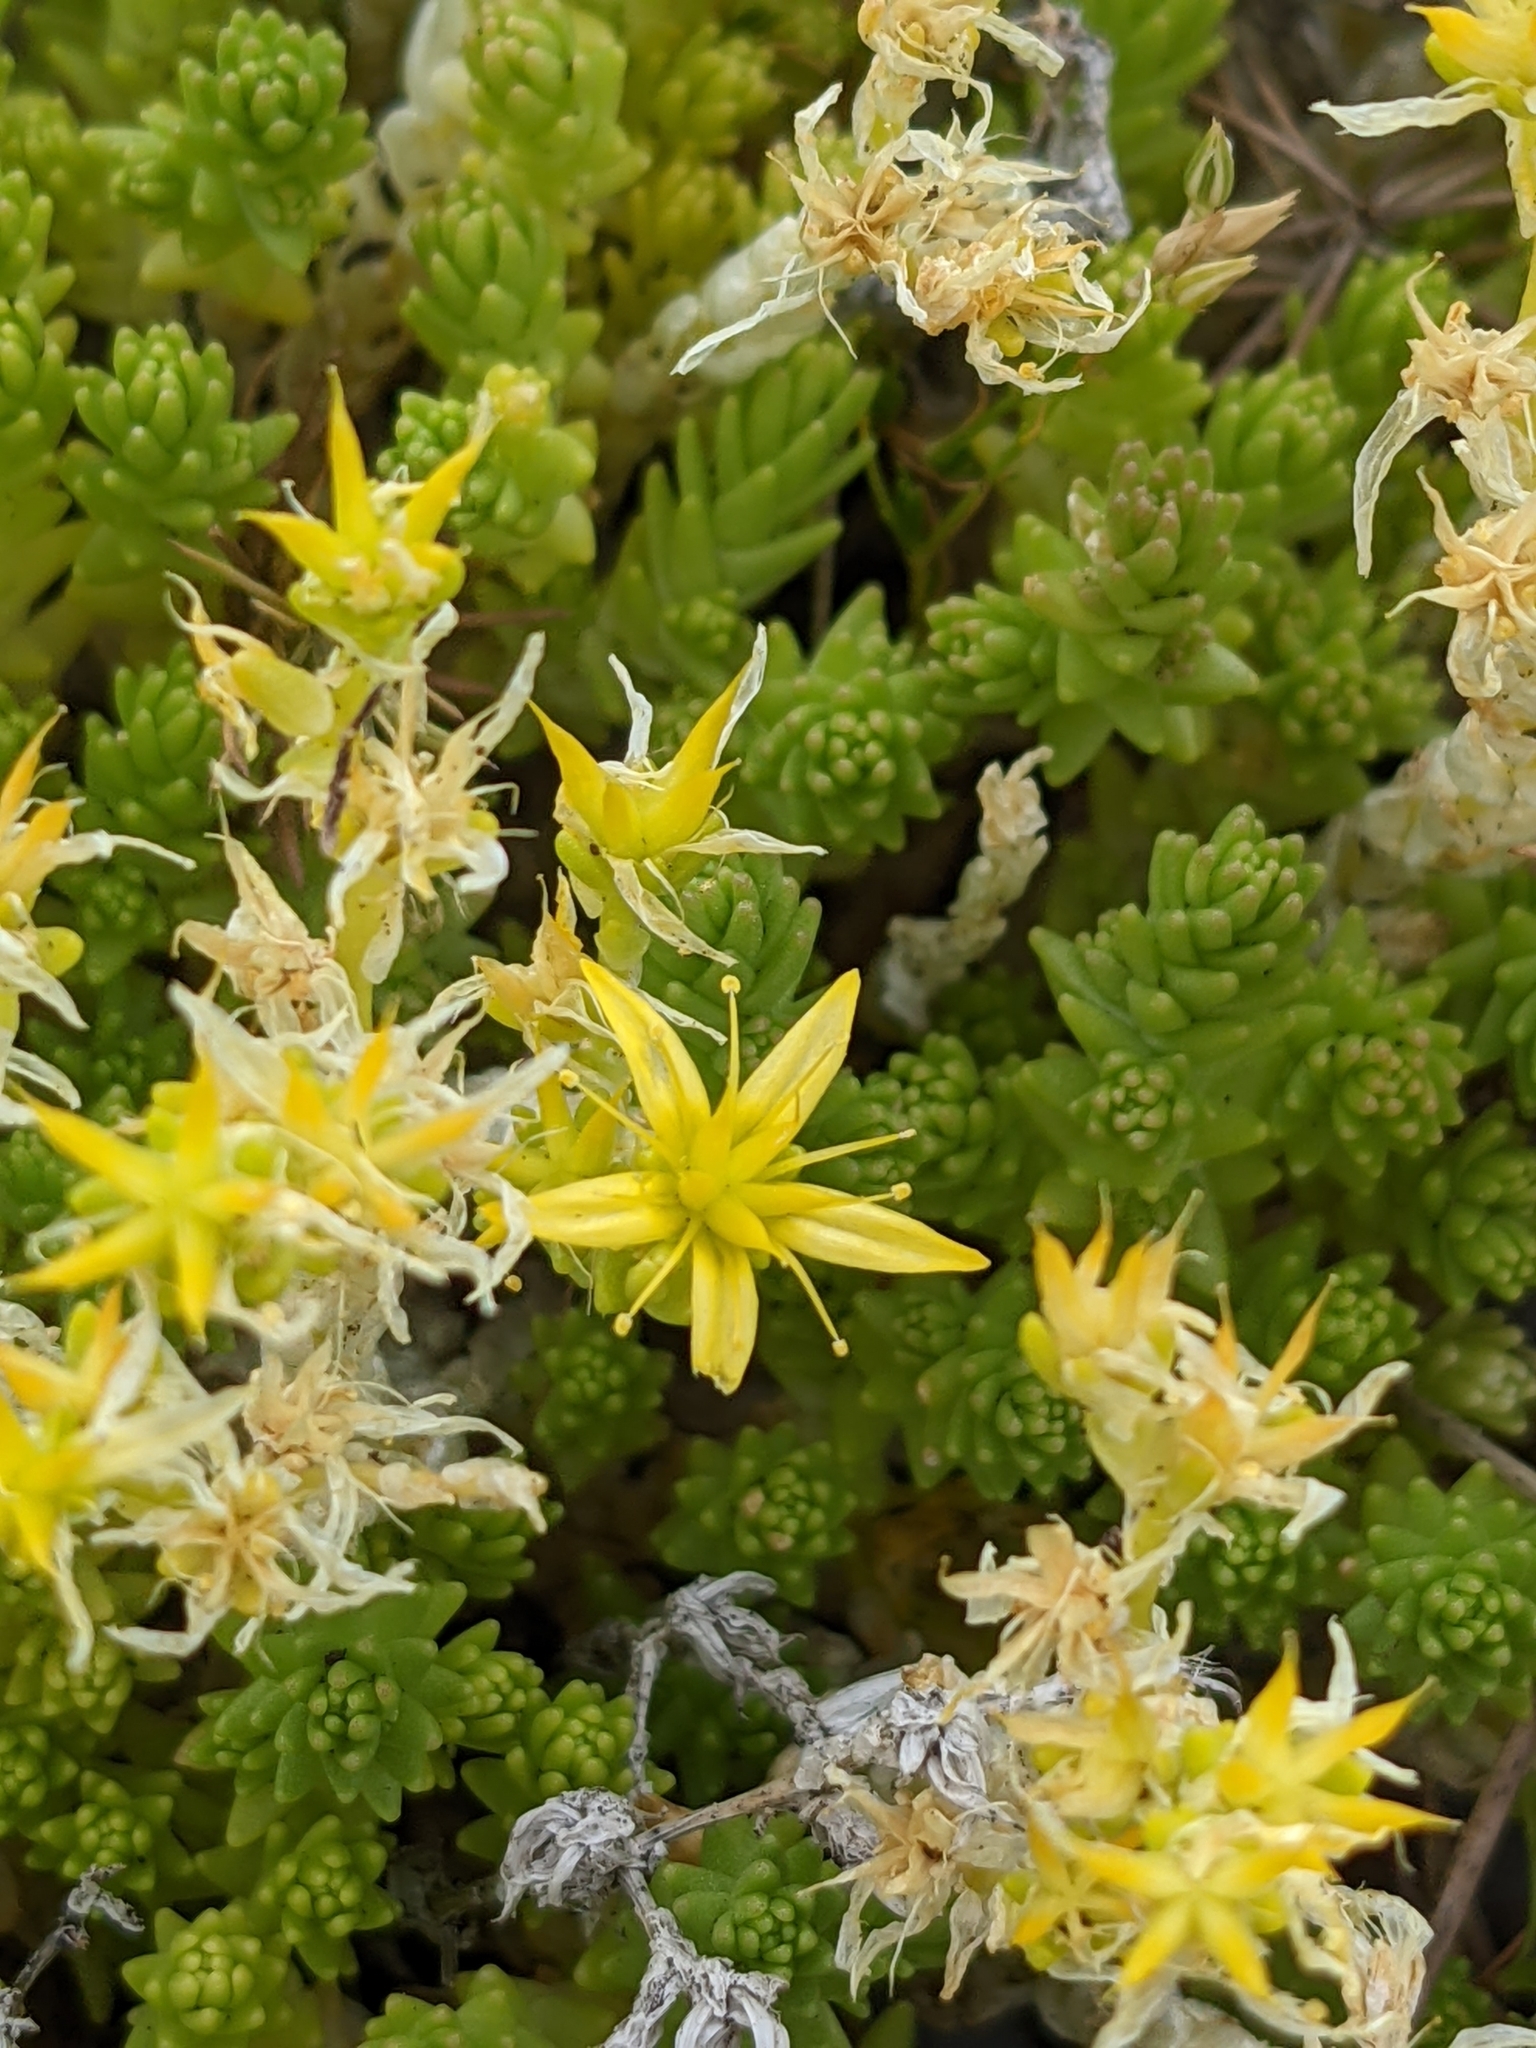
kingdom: Plantae
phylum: Tracheophyta
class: Magnoliopsida
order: Saxifragales
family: Crassulaceae
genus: Sedum
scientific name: Sedum acre
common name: Biting stonecrop
